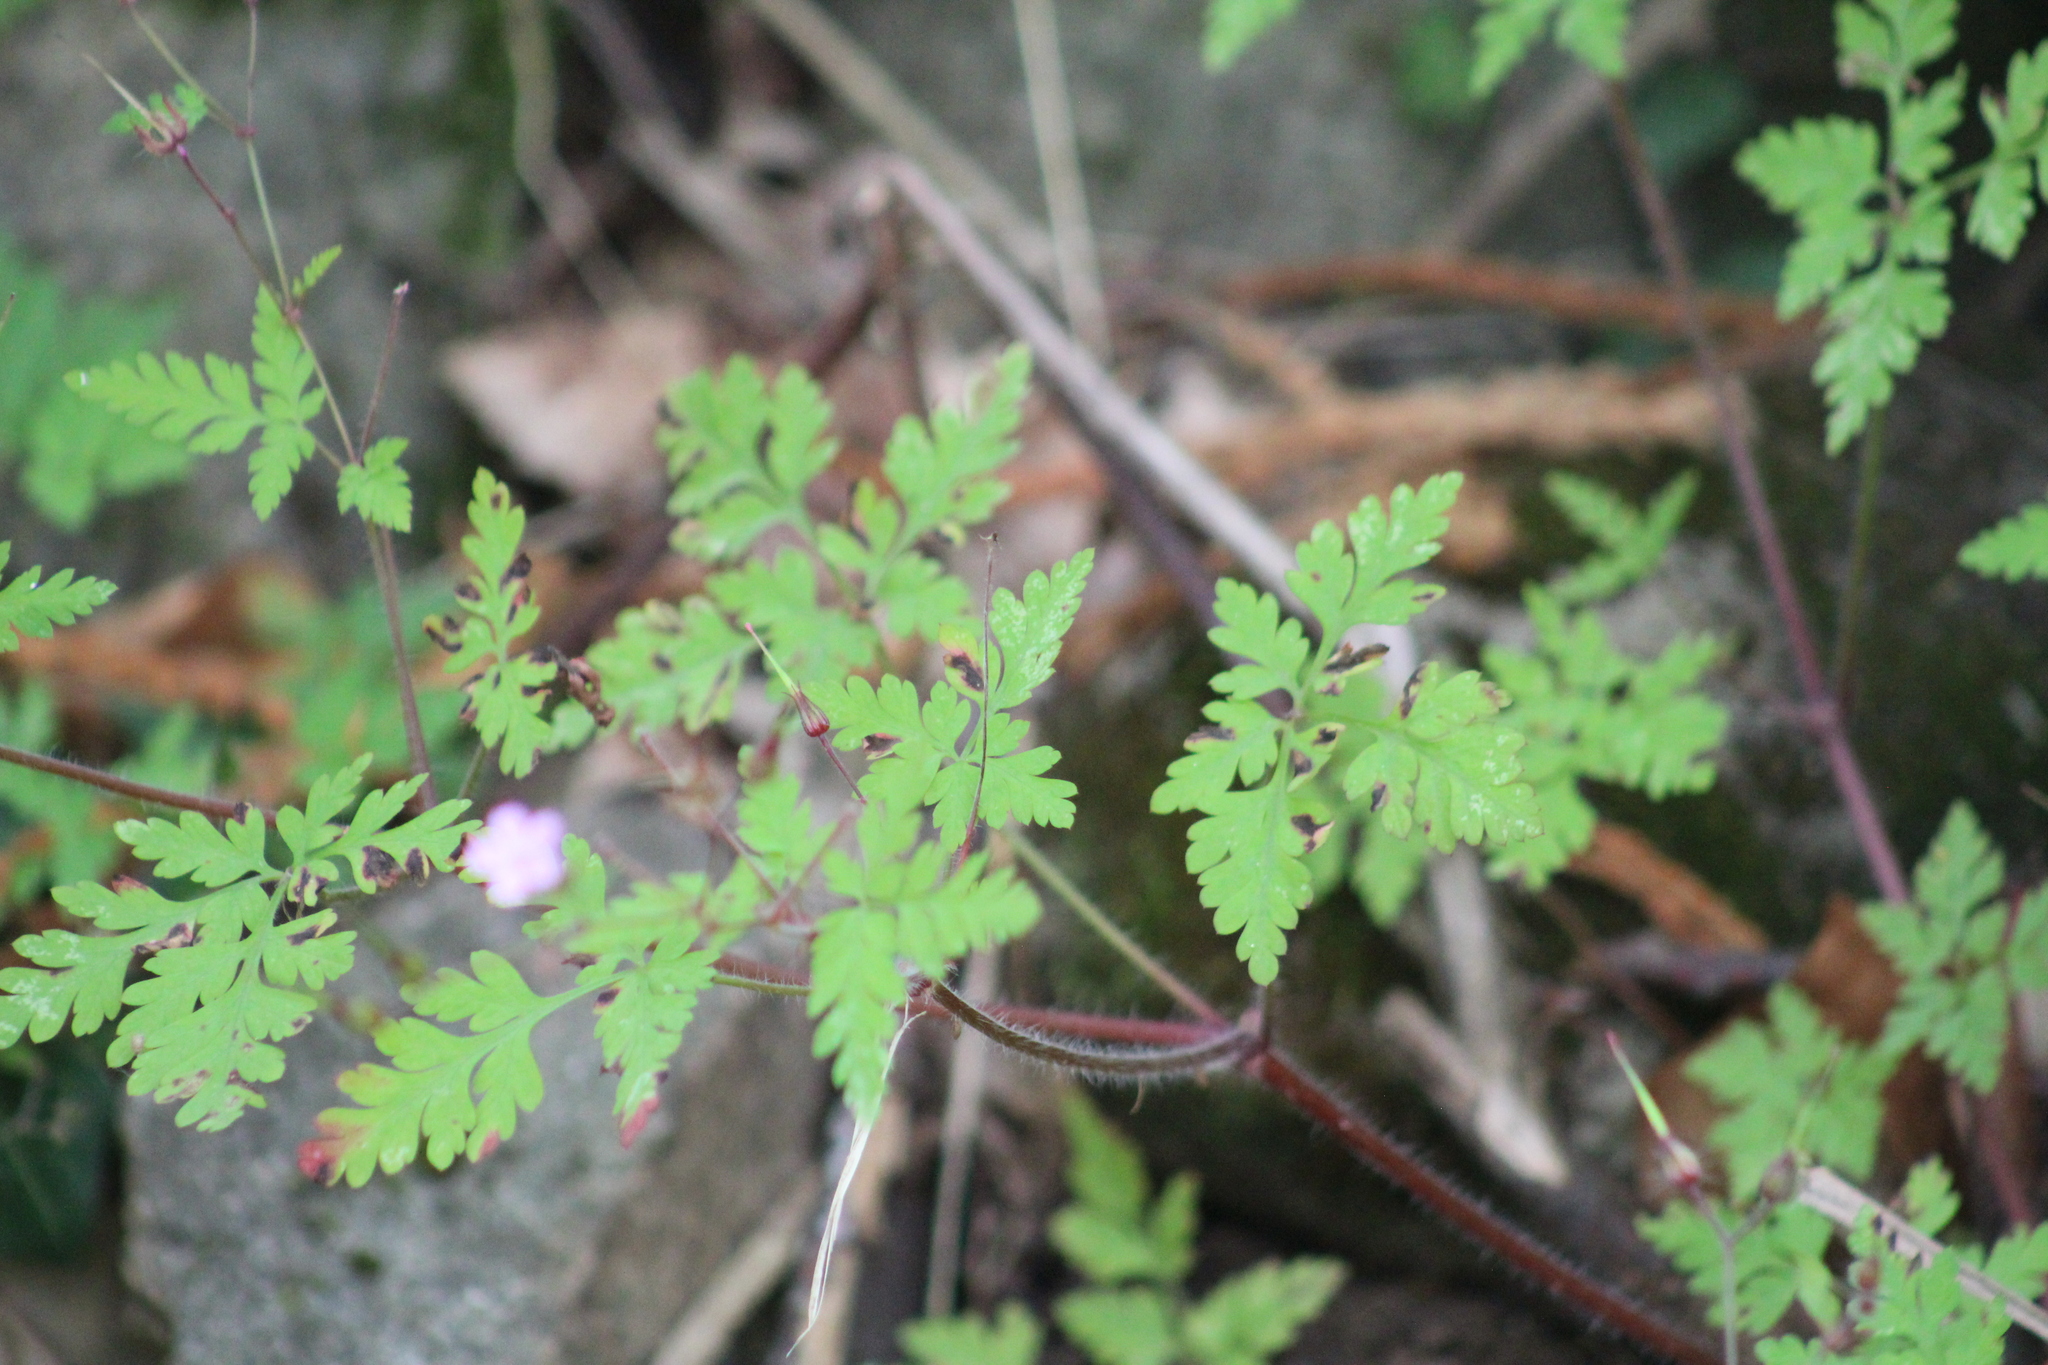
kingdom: Plantae
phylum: Tracheophyta
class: Magnoliopsida
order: Geraniales
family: Geraniaceae
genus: Geranium
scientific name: Geranium robertianum
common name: Herb-robert
